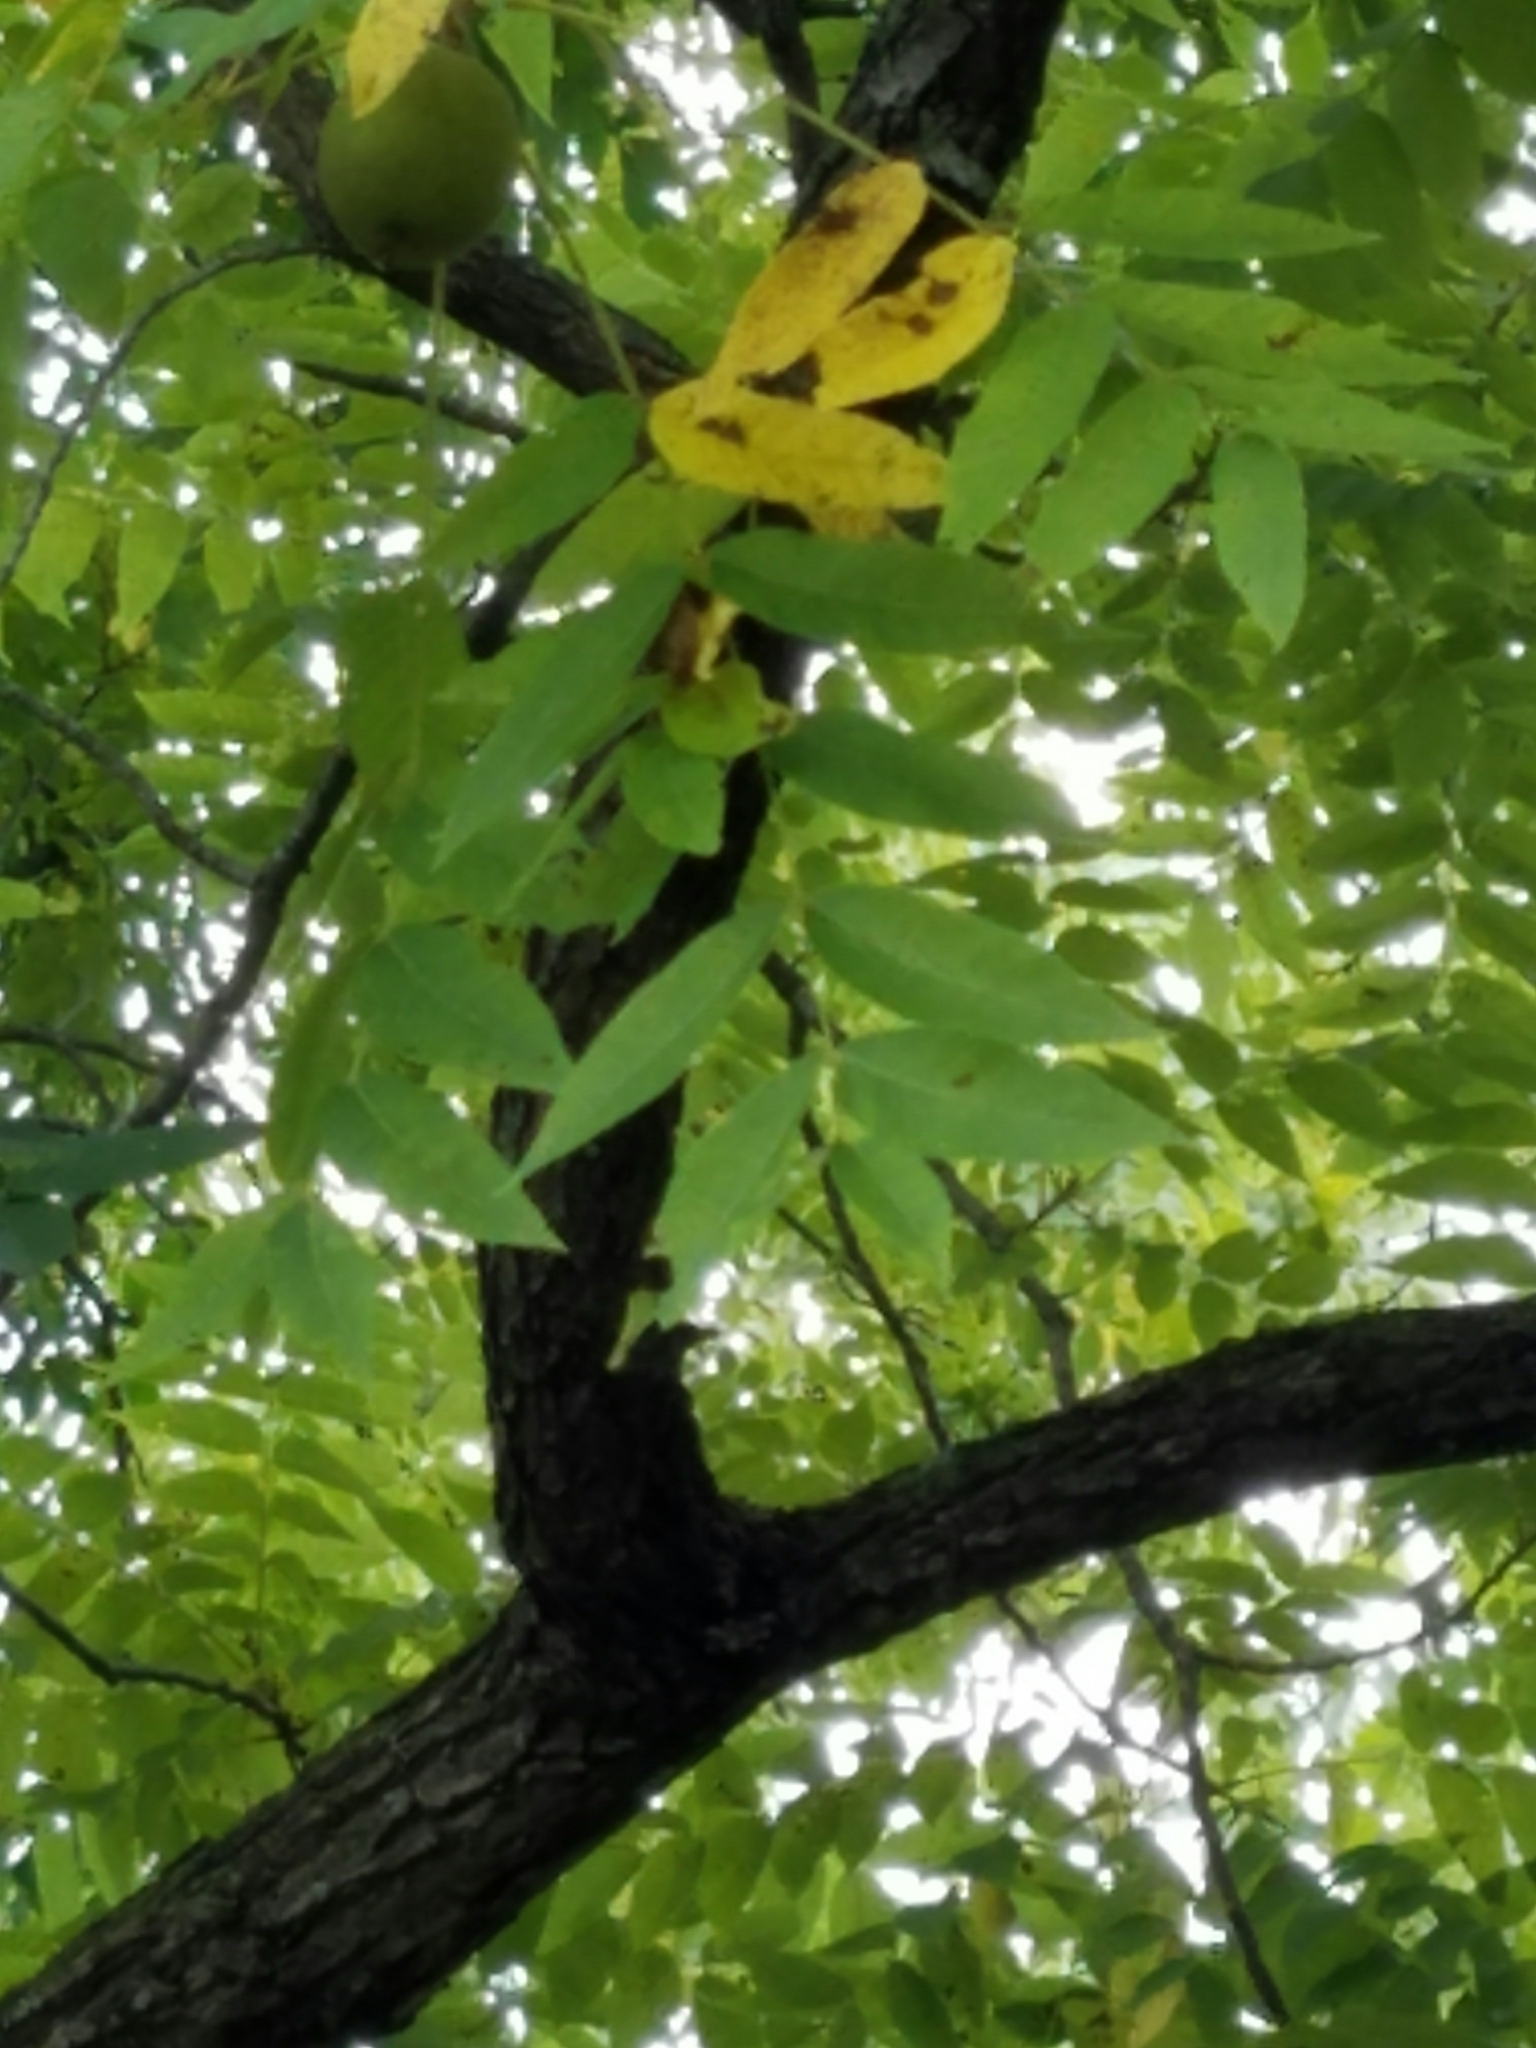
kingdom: Plantae
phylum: Tracheophyta
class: Magnoliopsida
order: Fagales
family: Juglandaceae
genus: Juglans
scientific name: Juglans nigra
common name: Black walnut
